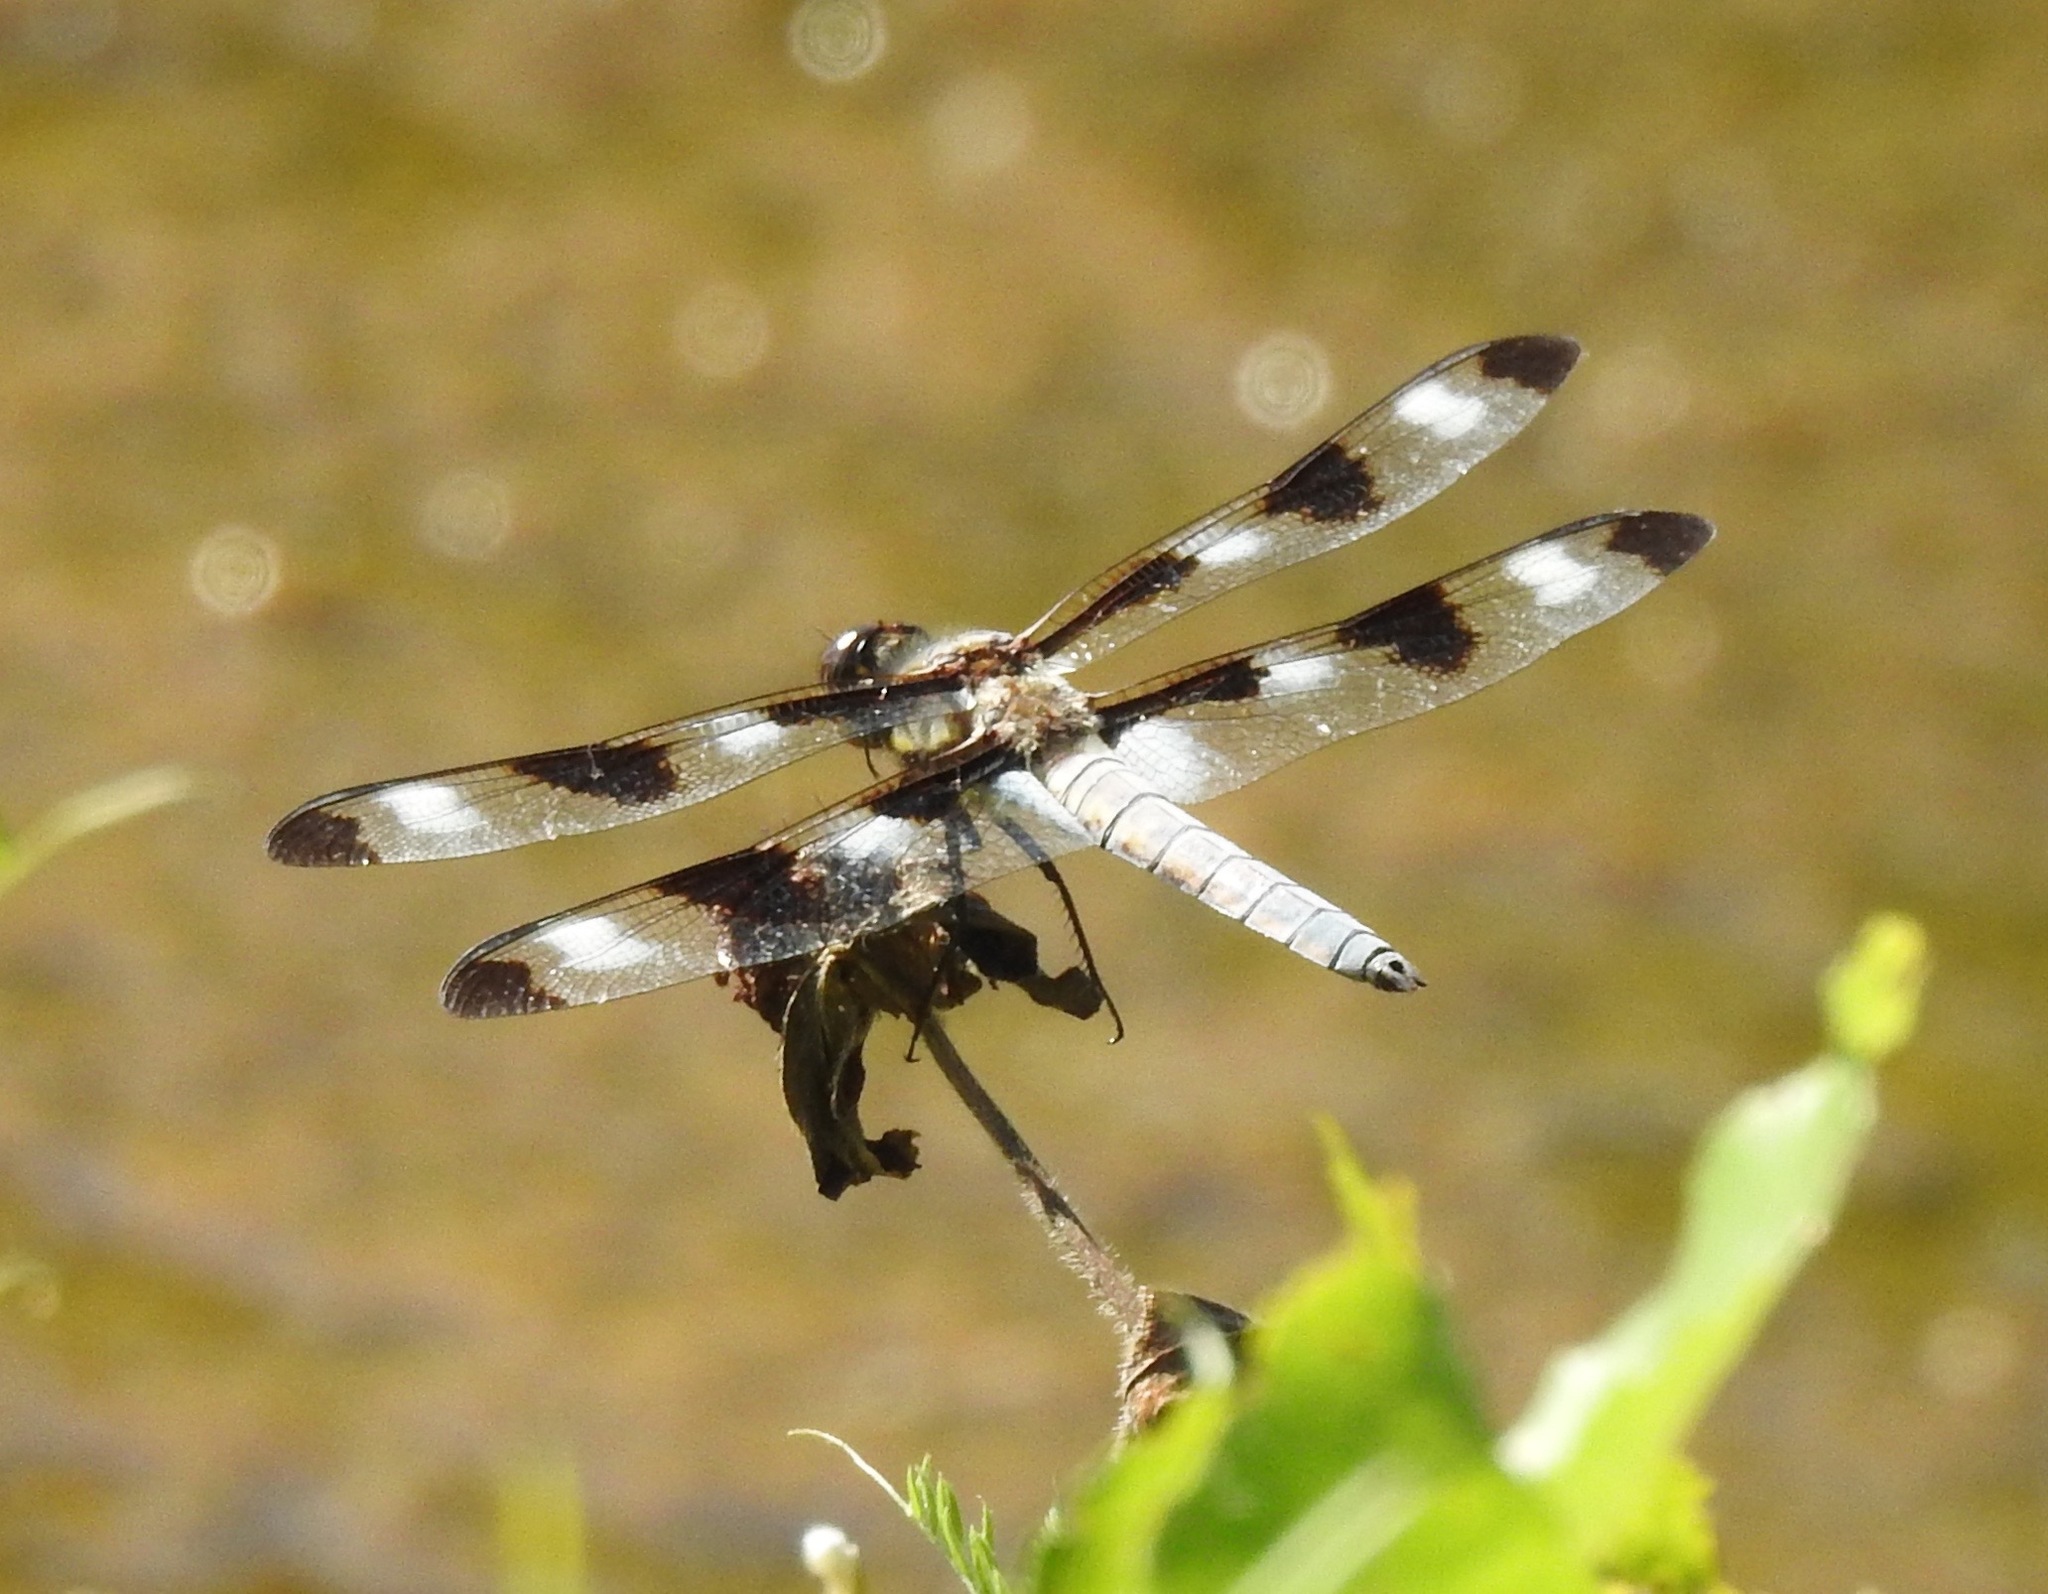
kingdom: Animalia
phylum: Arthropoda
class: Insecta
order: Odonata
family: Libellulidae
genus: Libellula
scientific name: Libellula pulchella
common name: Twelve-spotted skimmer
